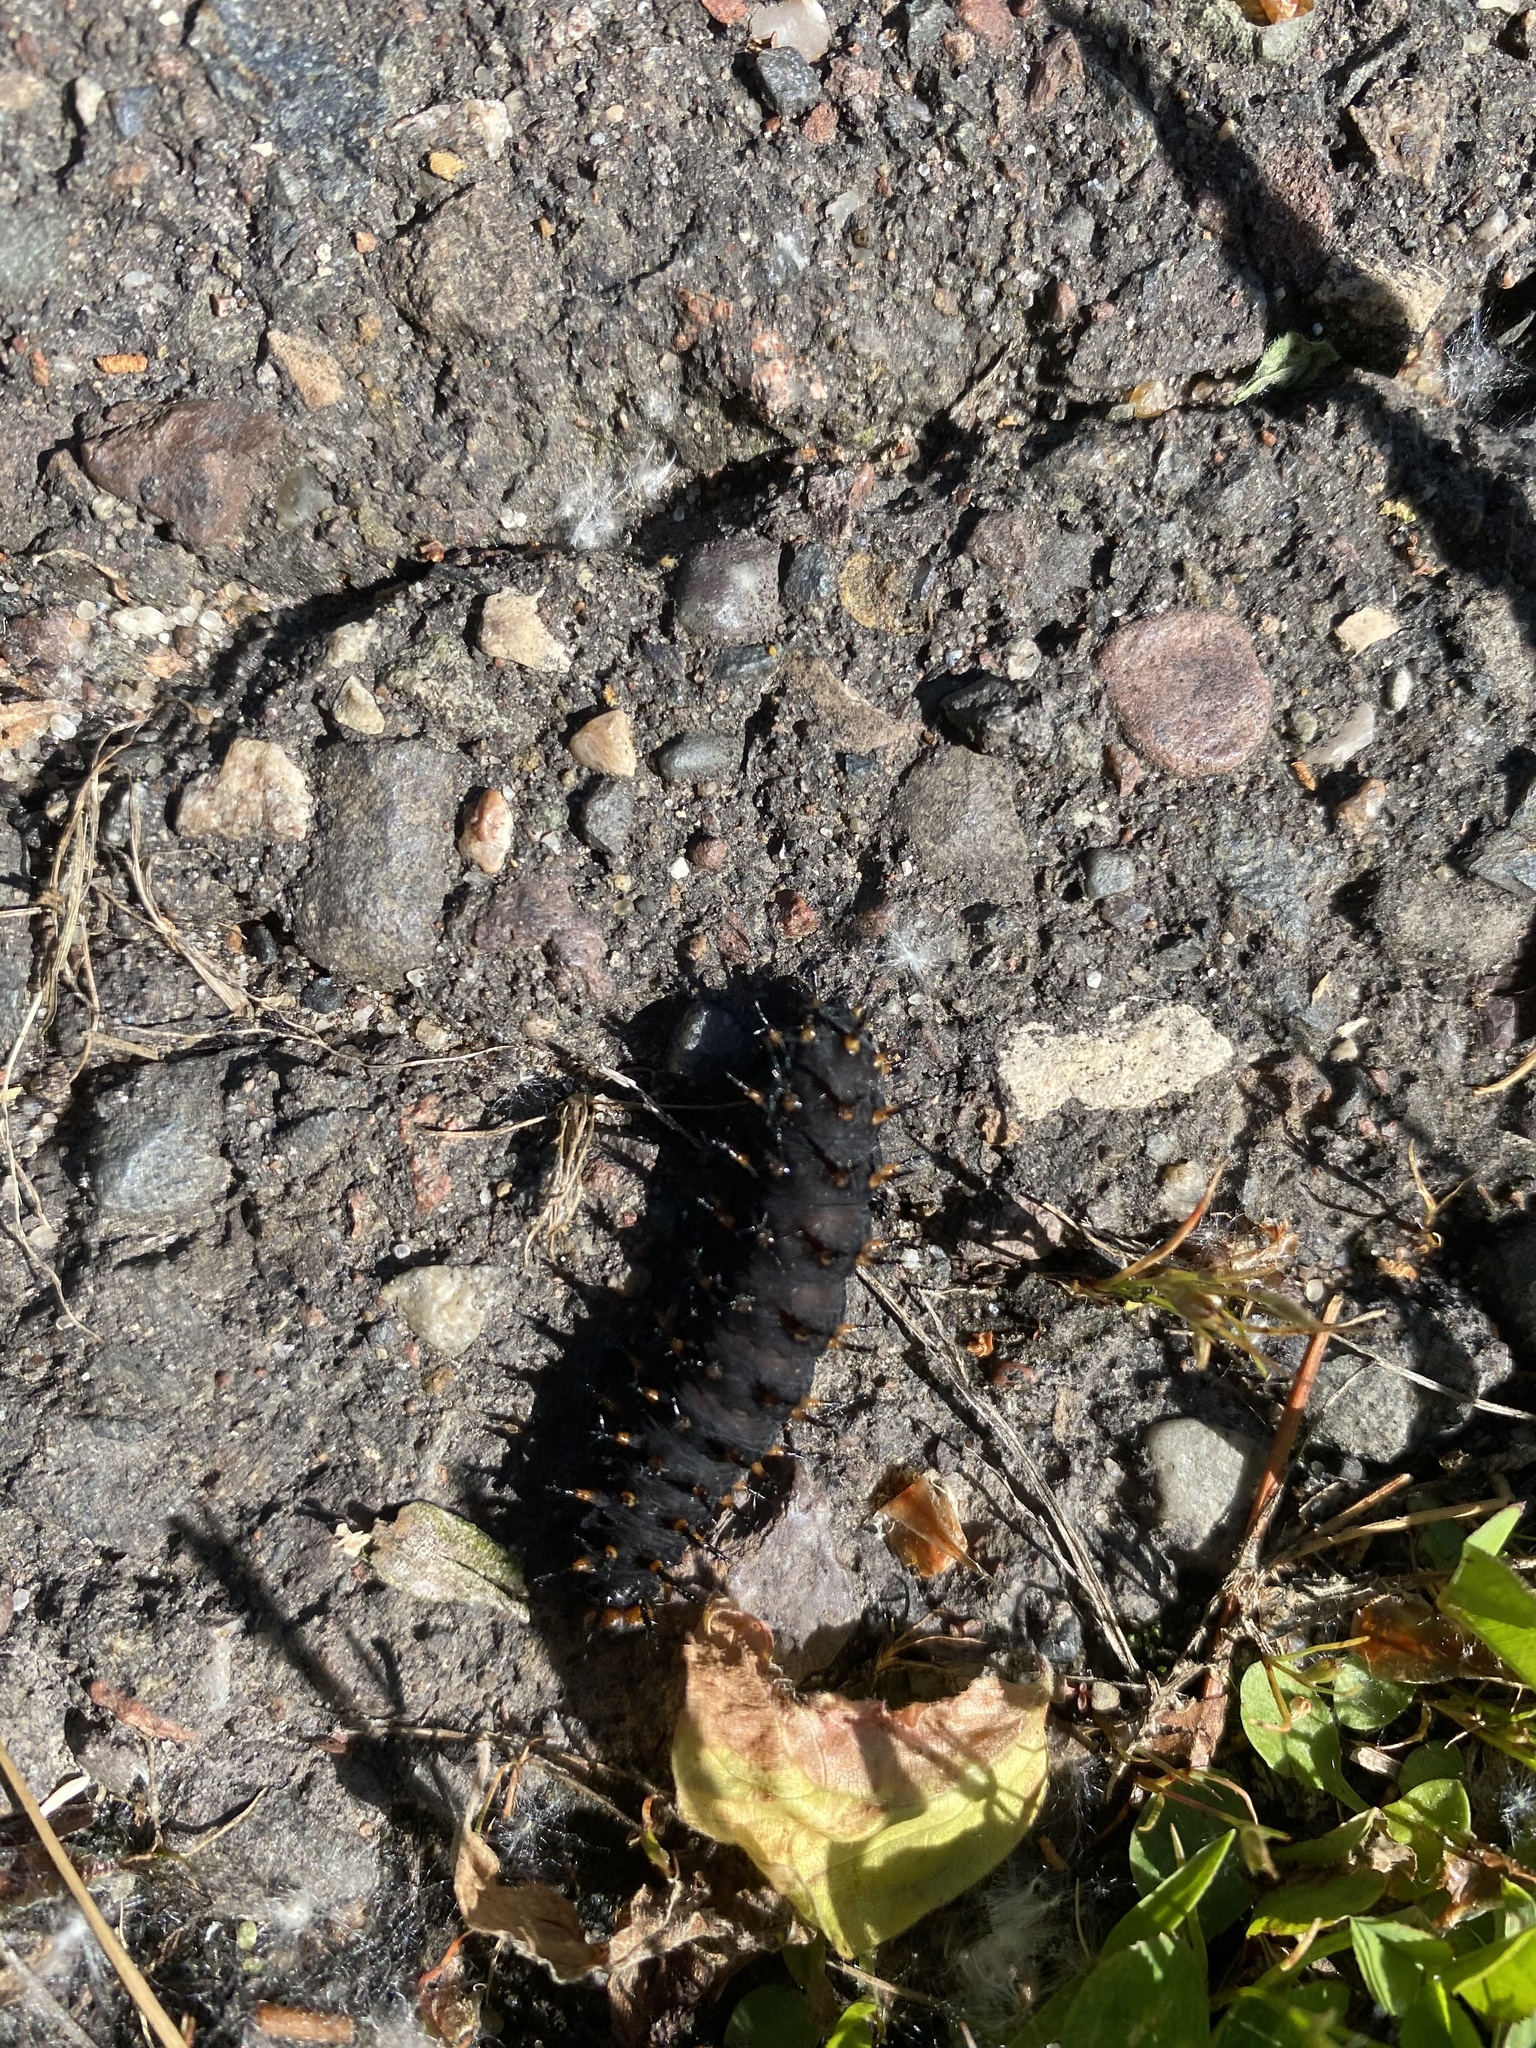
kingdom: Animalia
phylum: Arthropoda
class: Insecta
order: Lepidoptera
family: Nymphalidae
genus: Speyeria
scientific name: Speyeria cybele
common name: Great spangled fritillary
